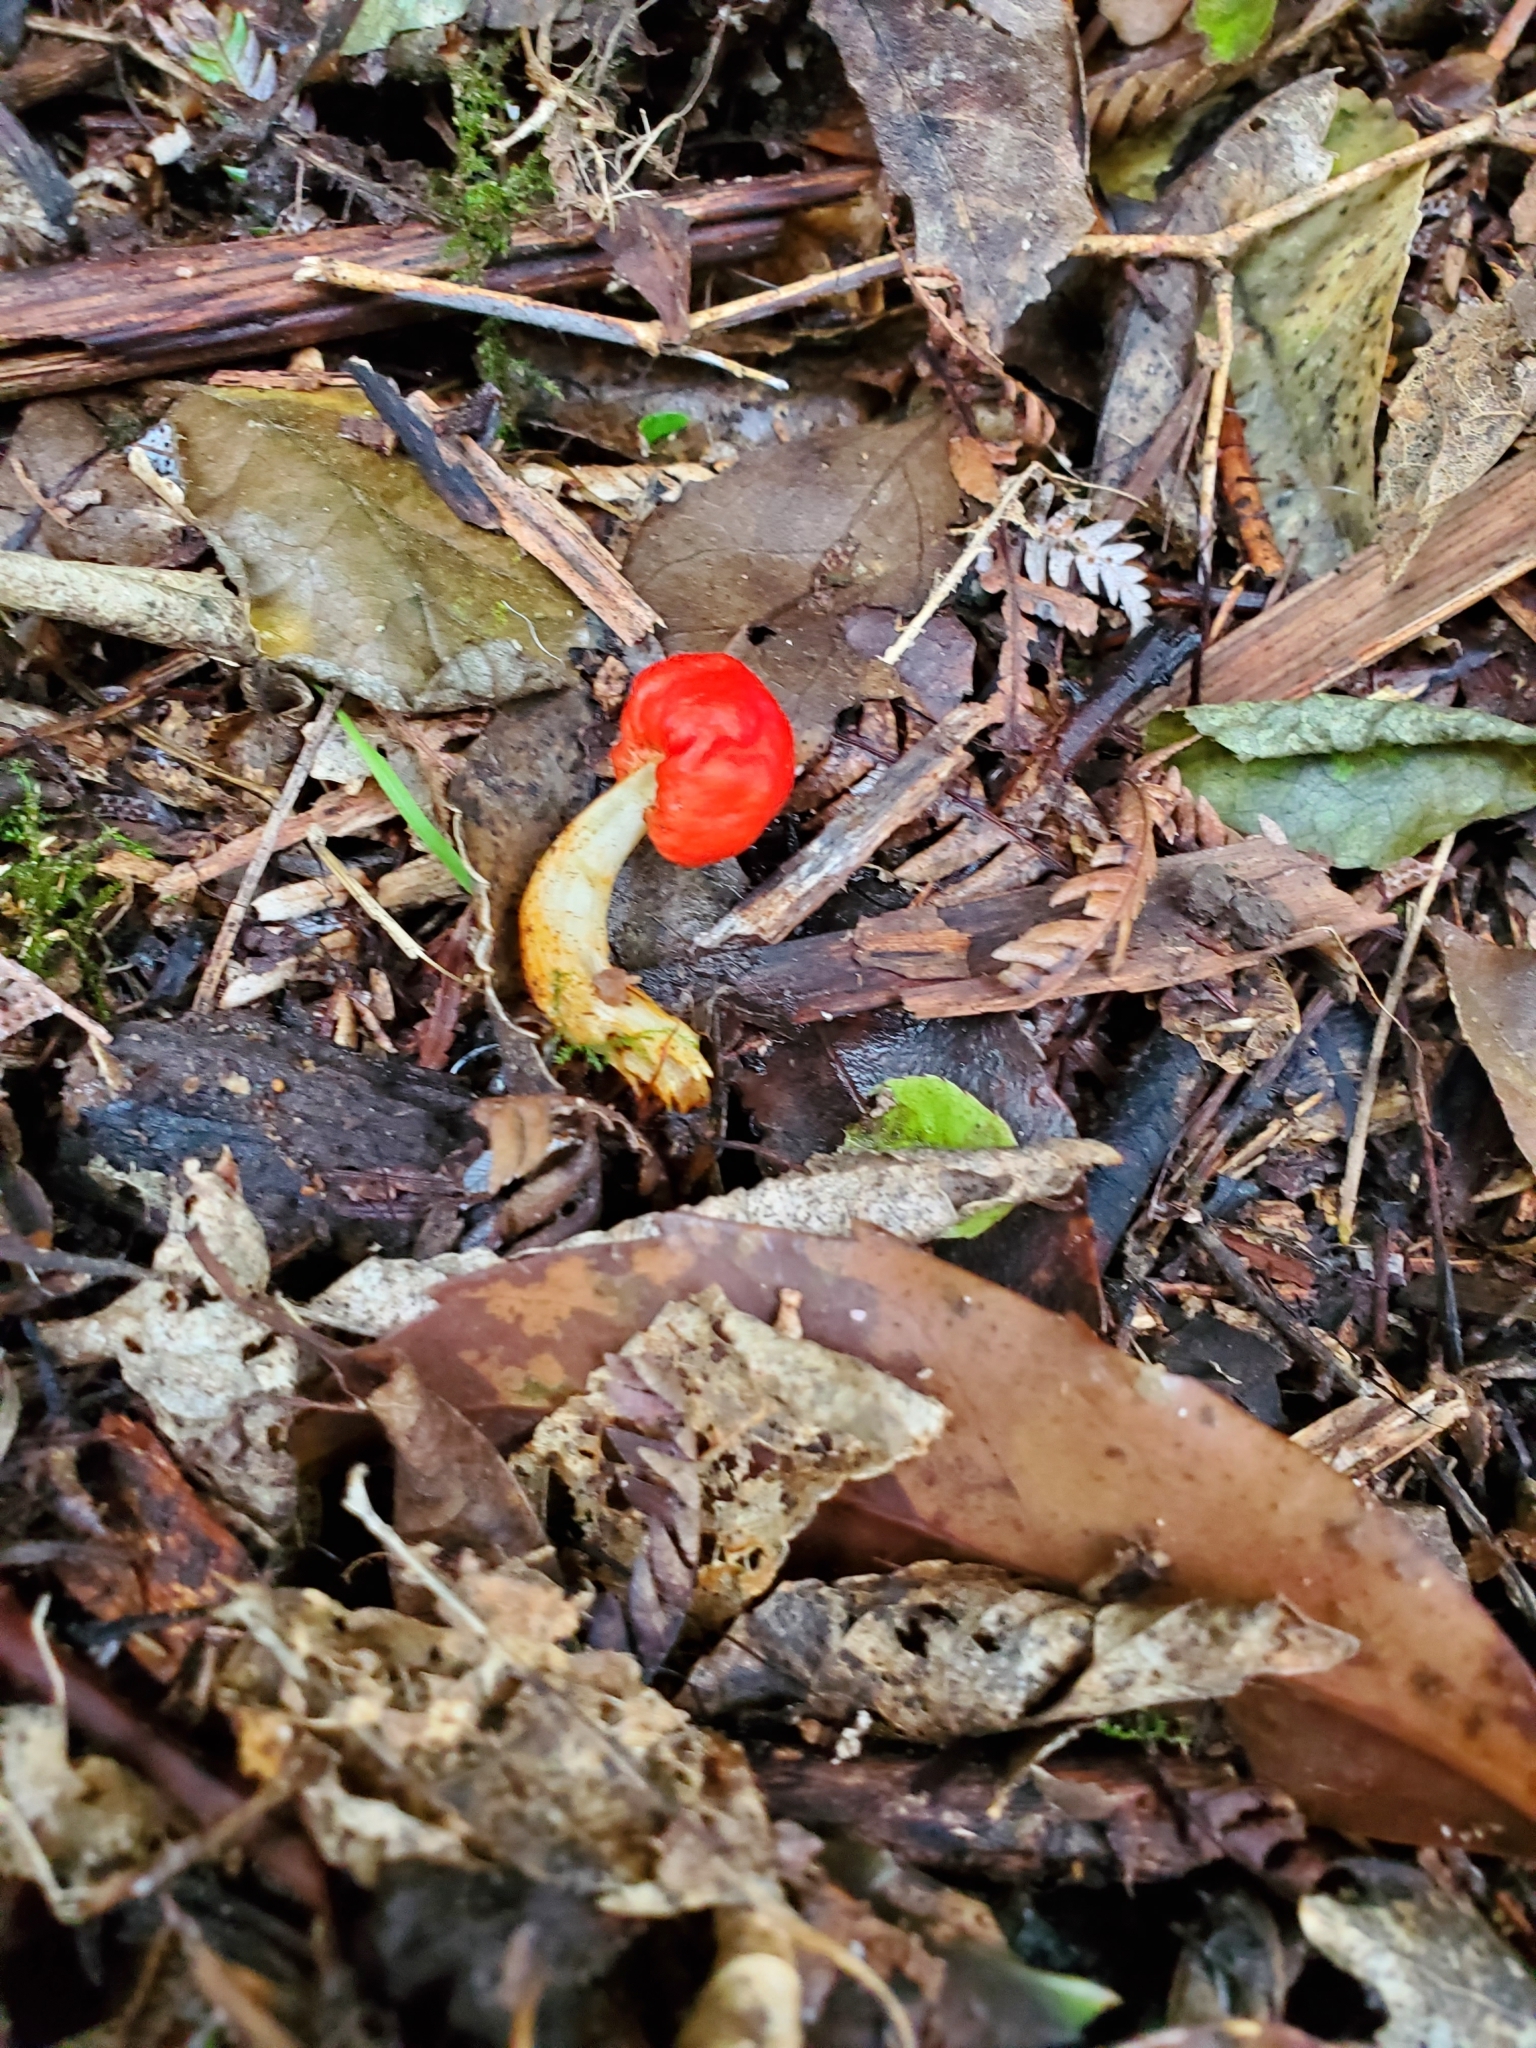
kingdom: Fungi
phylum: Basidiomycota
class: Agaricomycetes
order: Agaricales
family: Strophariaceae
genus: Leratiomyces
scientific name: Leratiomyces erythrocephalus
